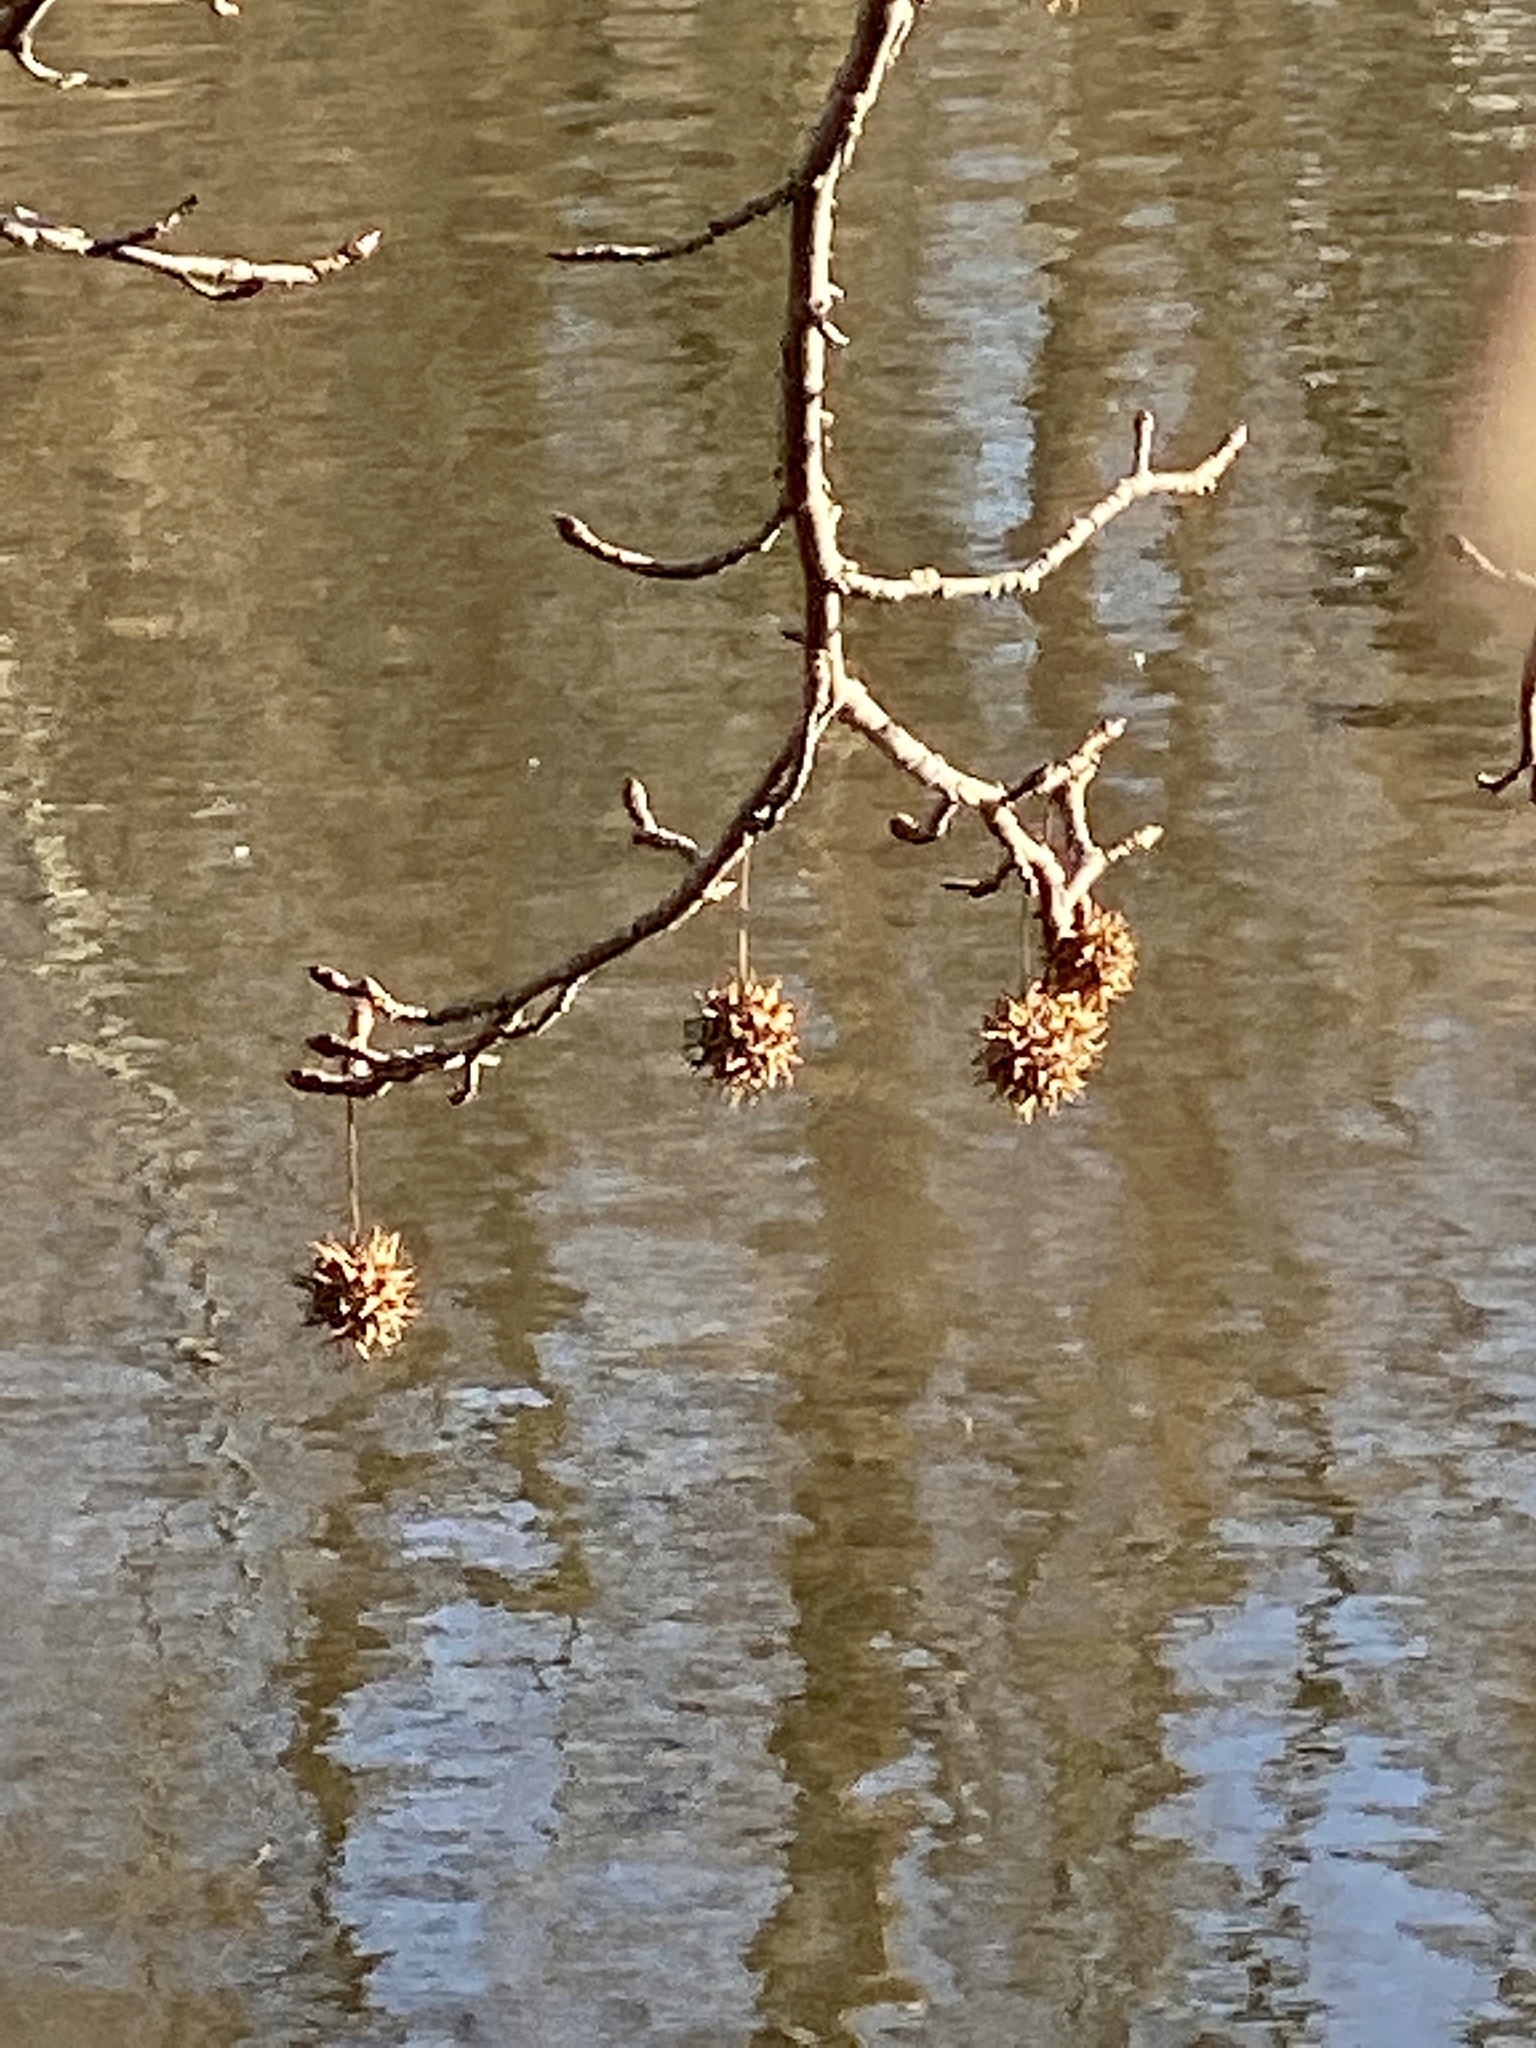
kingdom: Plantae
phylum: Tracheophyta
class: Magnoliopsida
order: Saxifragales
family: Altingiaceae
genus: Liquidambar
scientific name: Liquidambar styraciflua
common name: Sweet gum
